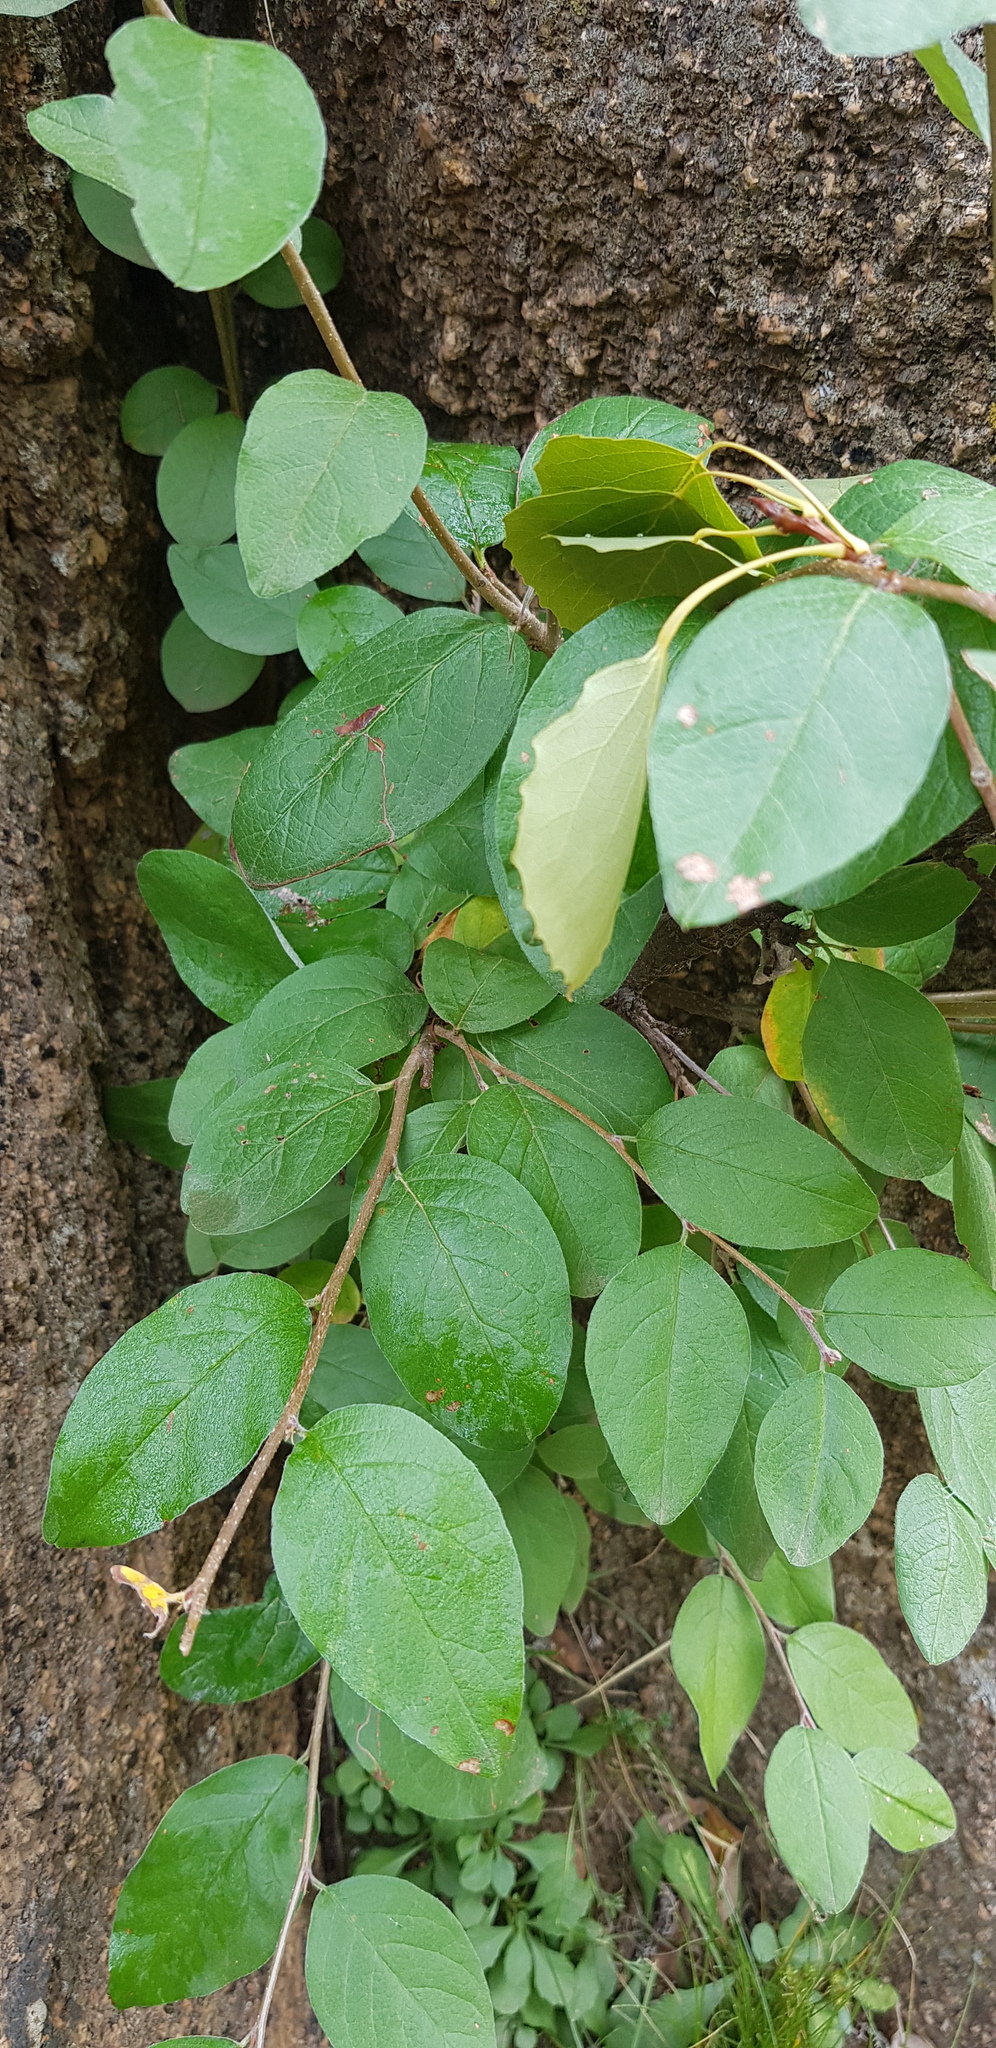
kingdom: Plantae
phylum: Tracheophyta
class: Magnoliopsida
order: Rosales
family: Rosaceae
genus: Cotoneaster
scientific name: Cotoneaster mongolicus
